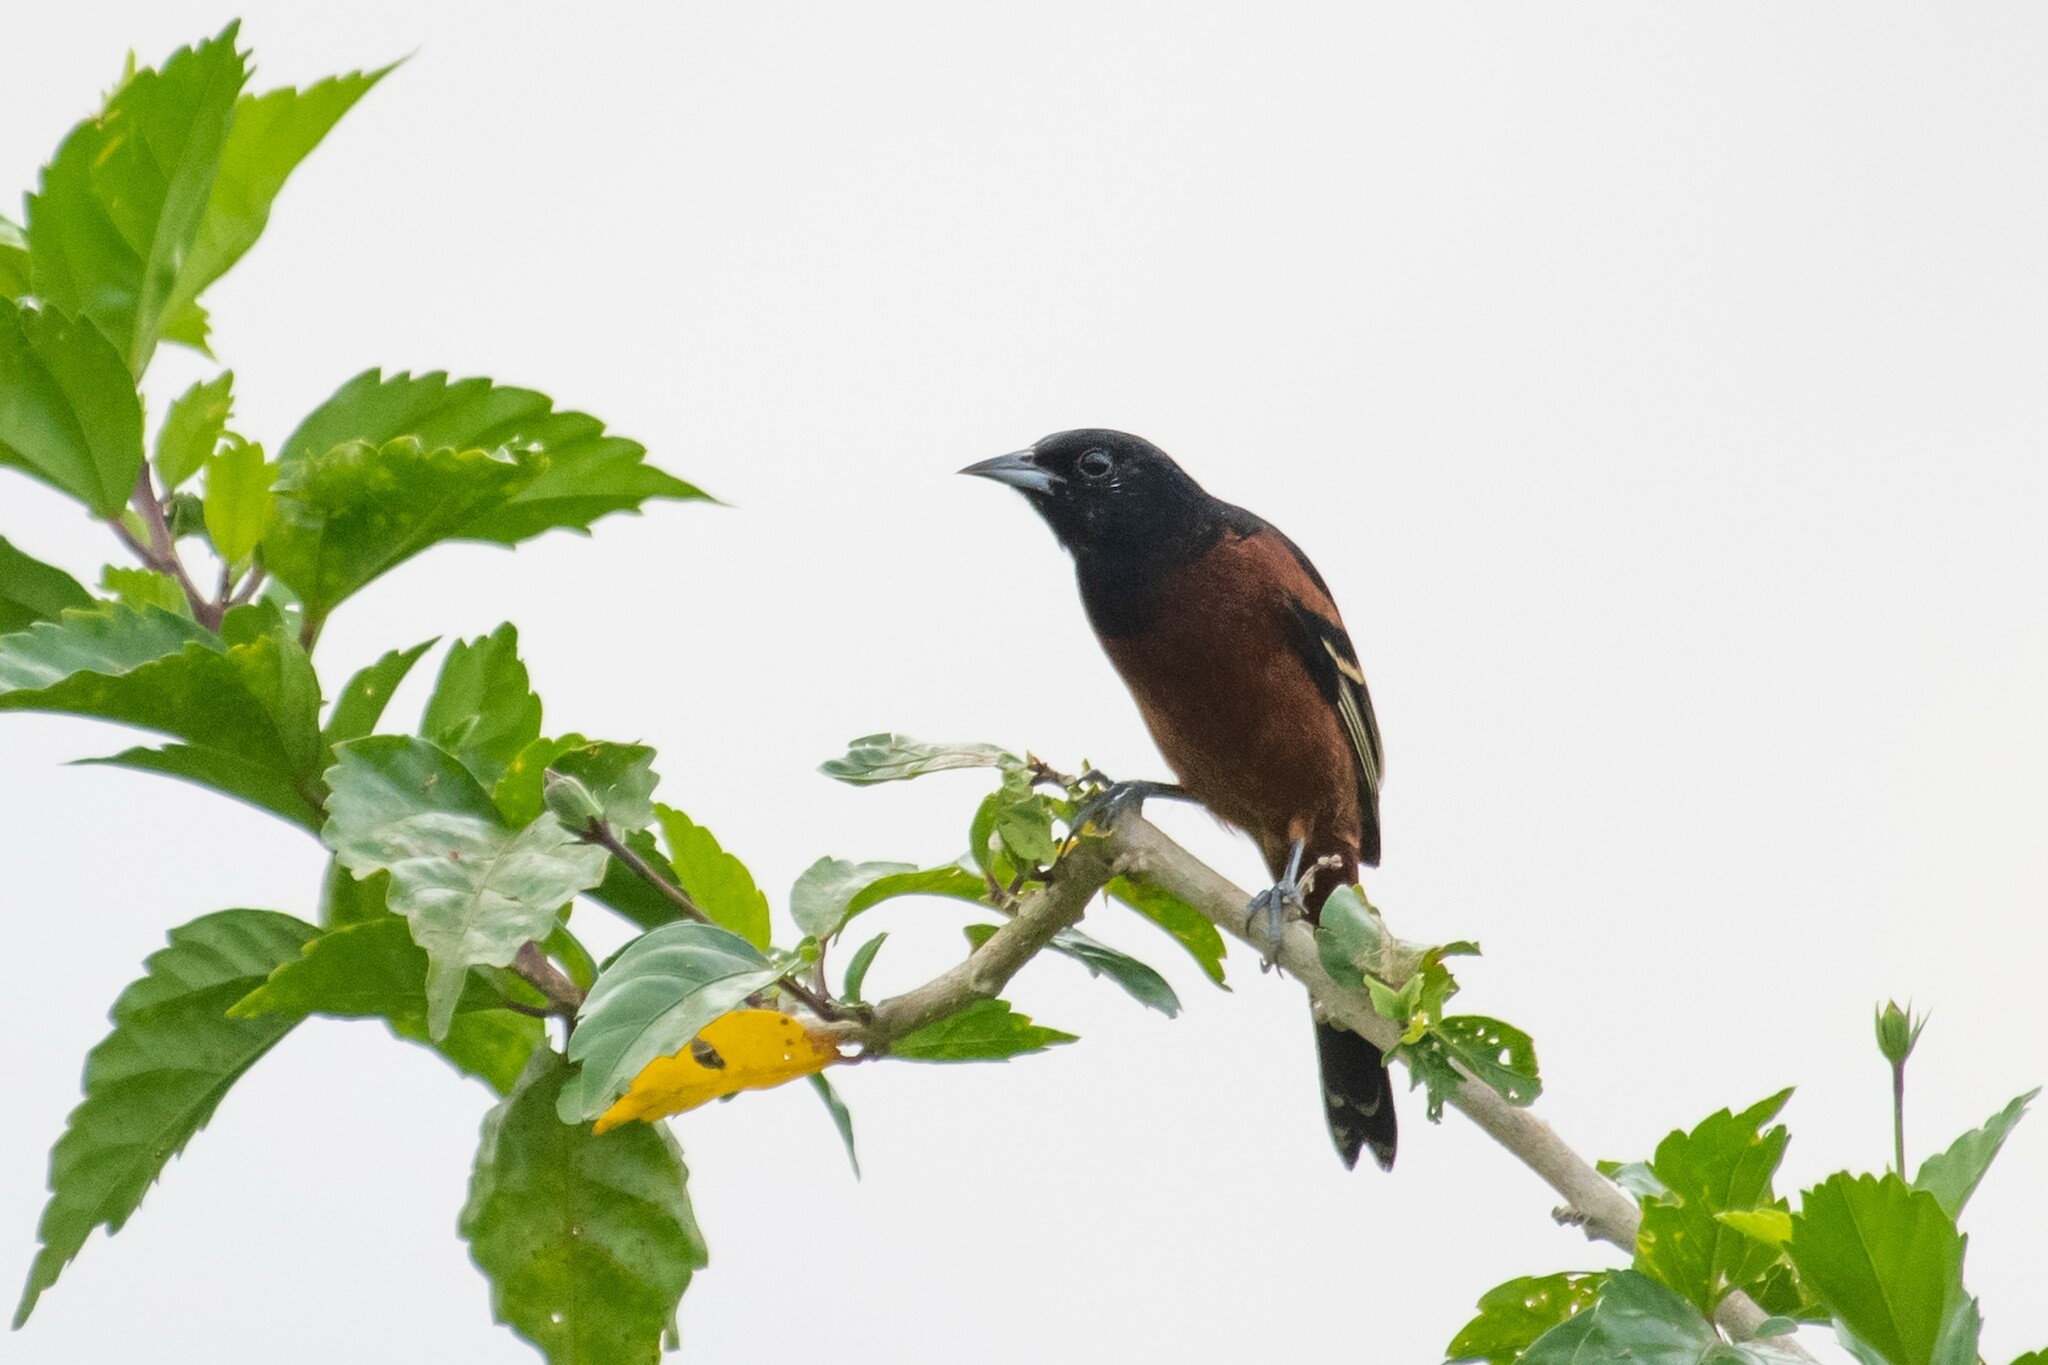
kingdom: Animalia
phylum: Chordata
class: Aves
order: Passeriformes
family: Icteridae
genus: Icterus
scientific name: Icterus spurius
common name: Orchard oriole
